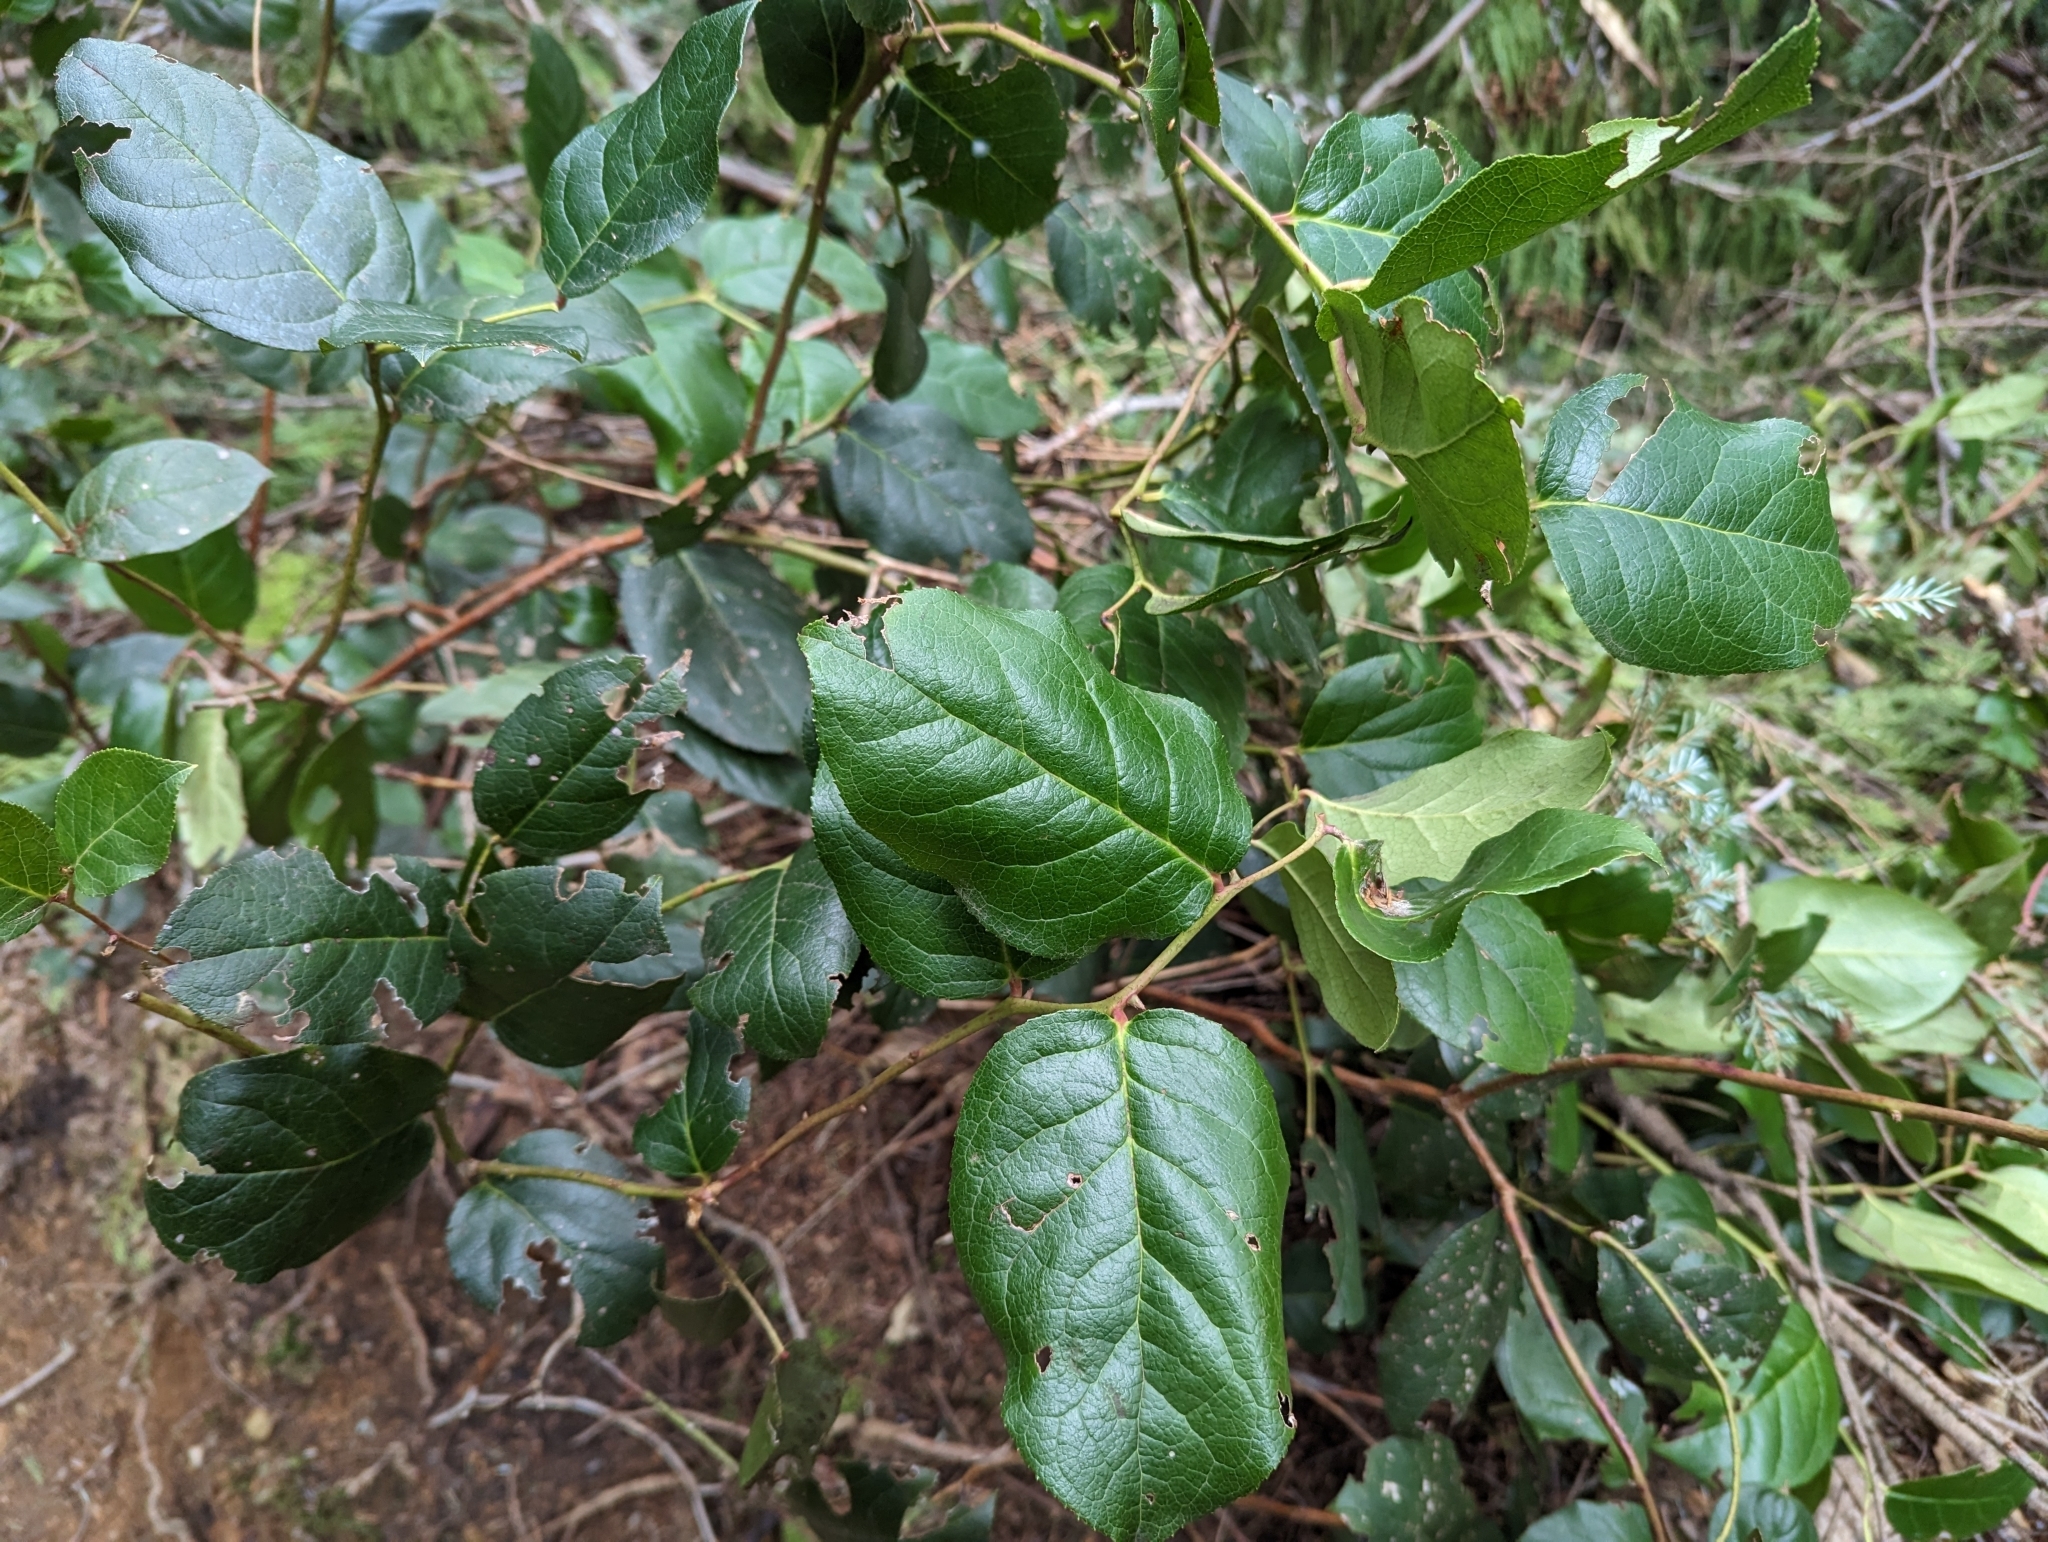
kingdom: Plantae
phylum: Tracheophyta
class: Magnoliopsida
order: Ericales
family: Ericaceae
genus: Gaultheria
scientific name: Gaultheria shallon
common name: Shallon
